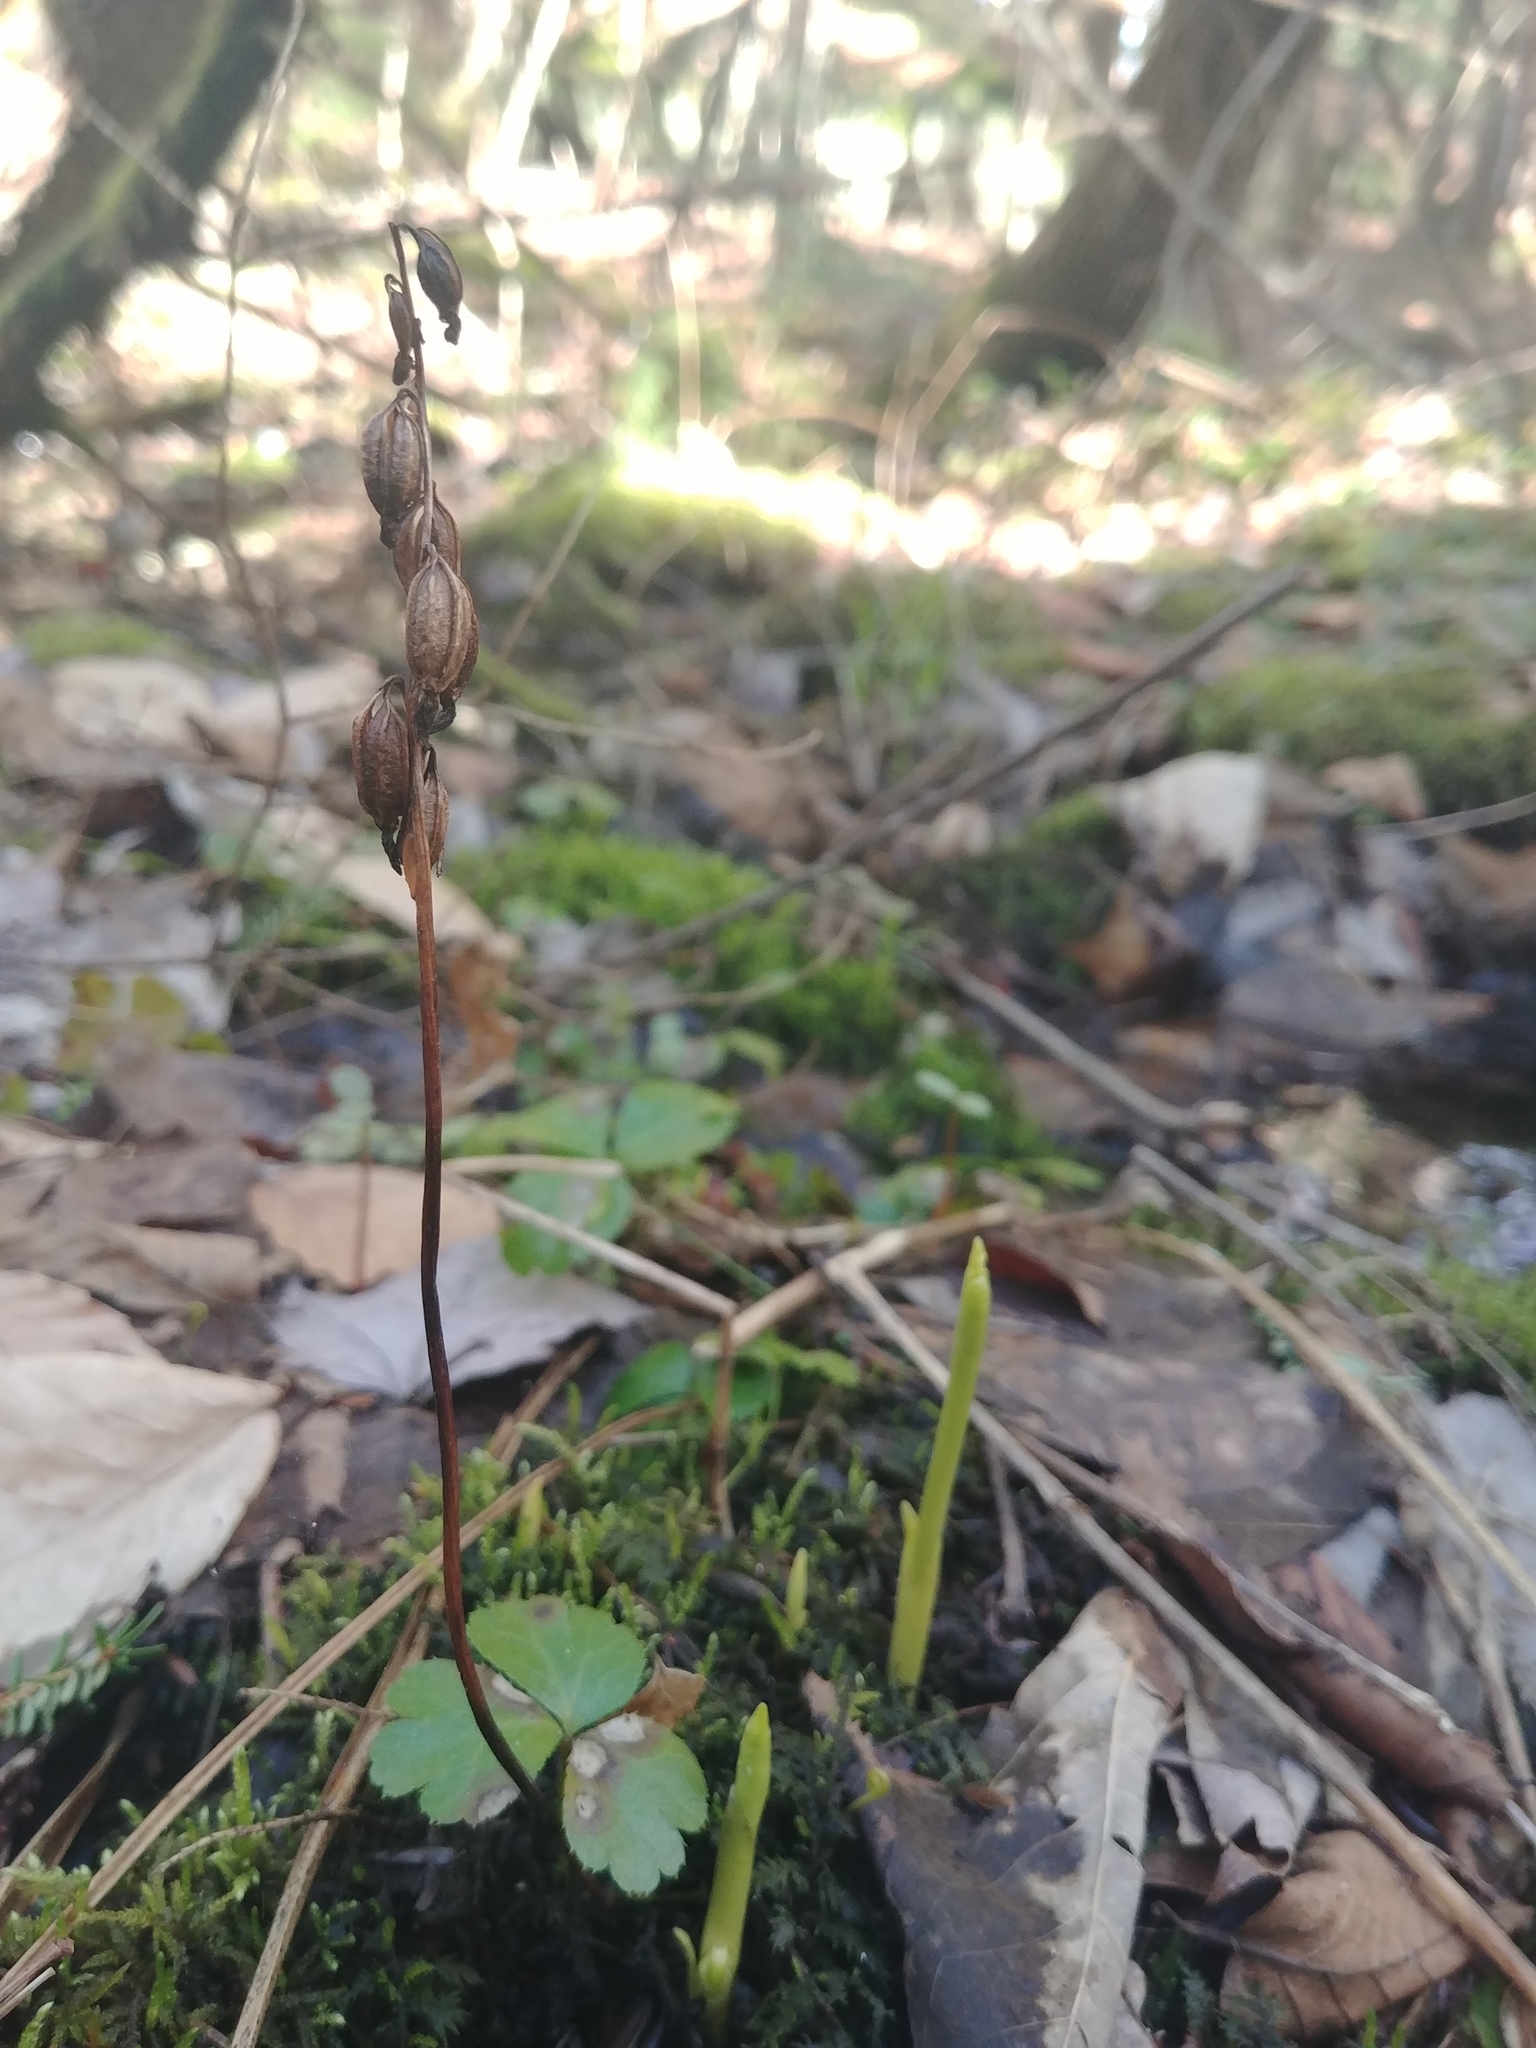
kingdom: Plantae
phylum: Tracheophyta
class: Liliopsida
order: Asparagales
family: Orchidaceae
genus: Corallorhiza
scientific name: Corallorhiza trifida
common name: Yellow coralroot
